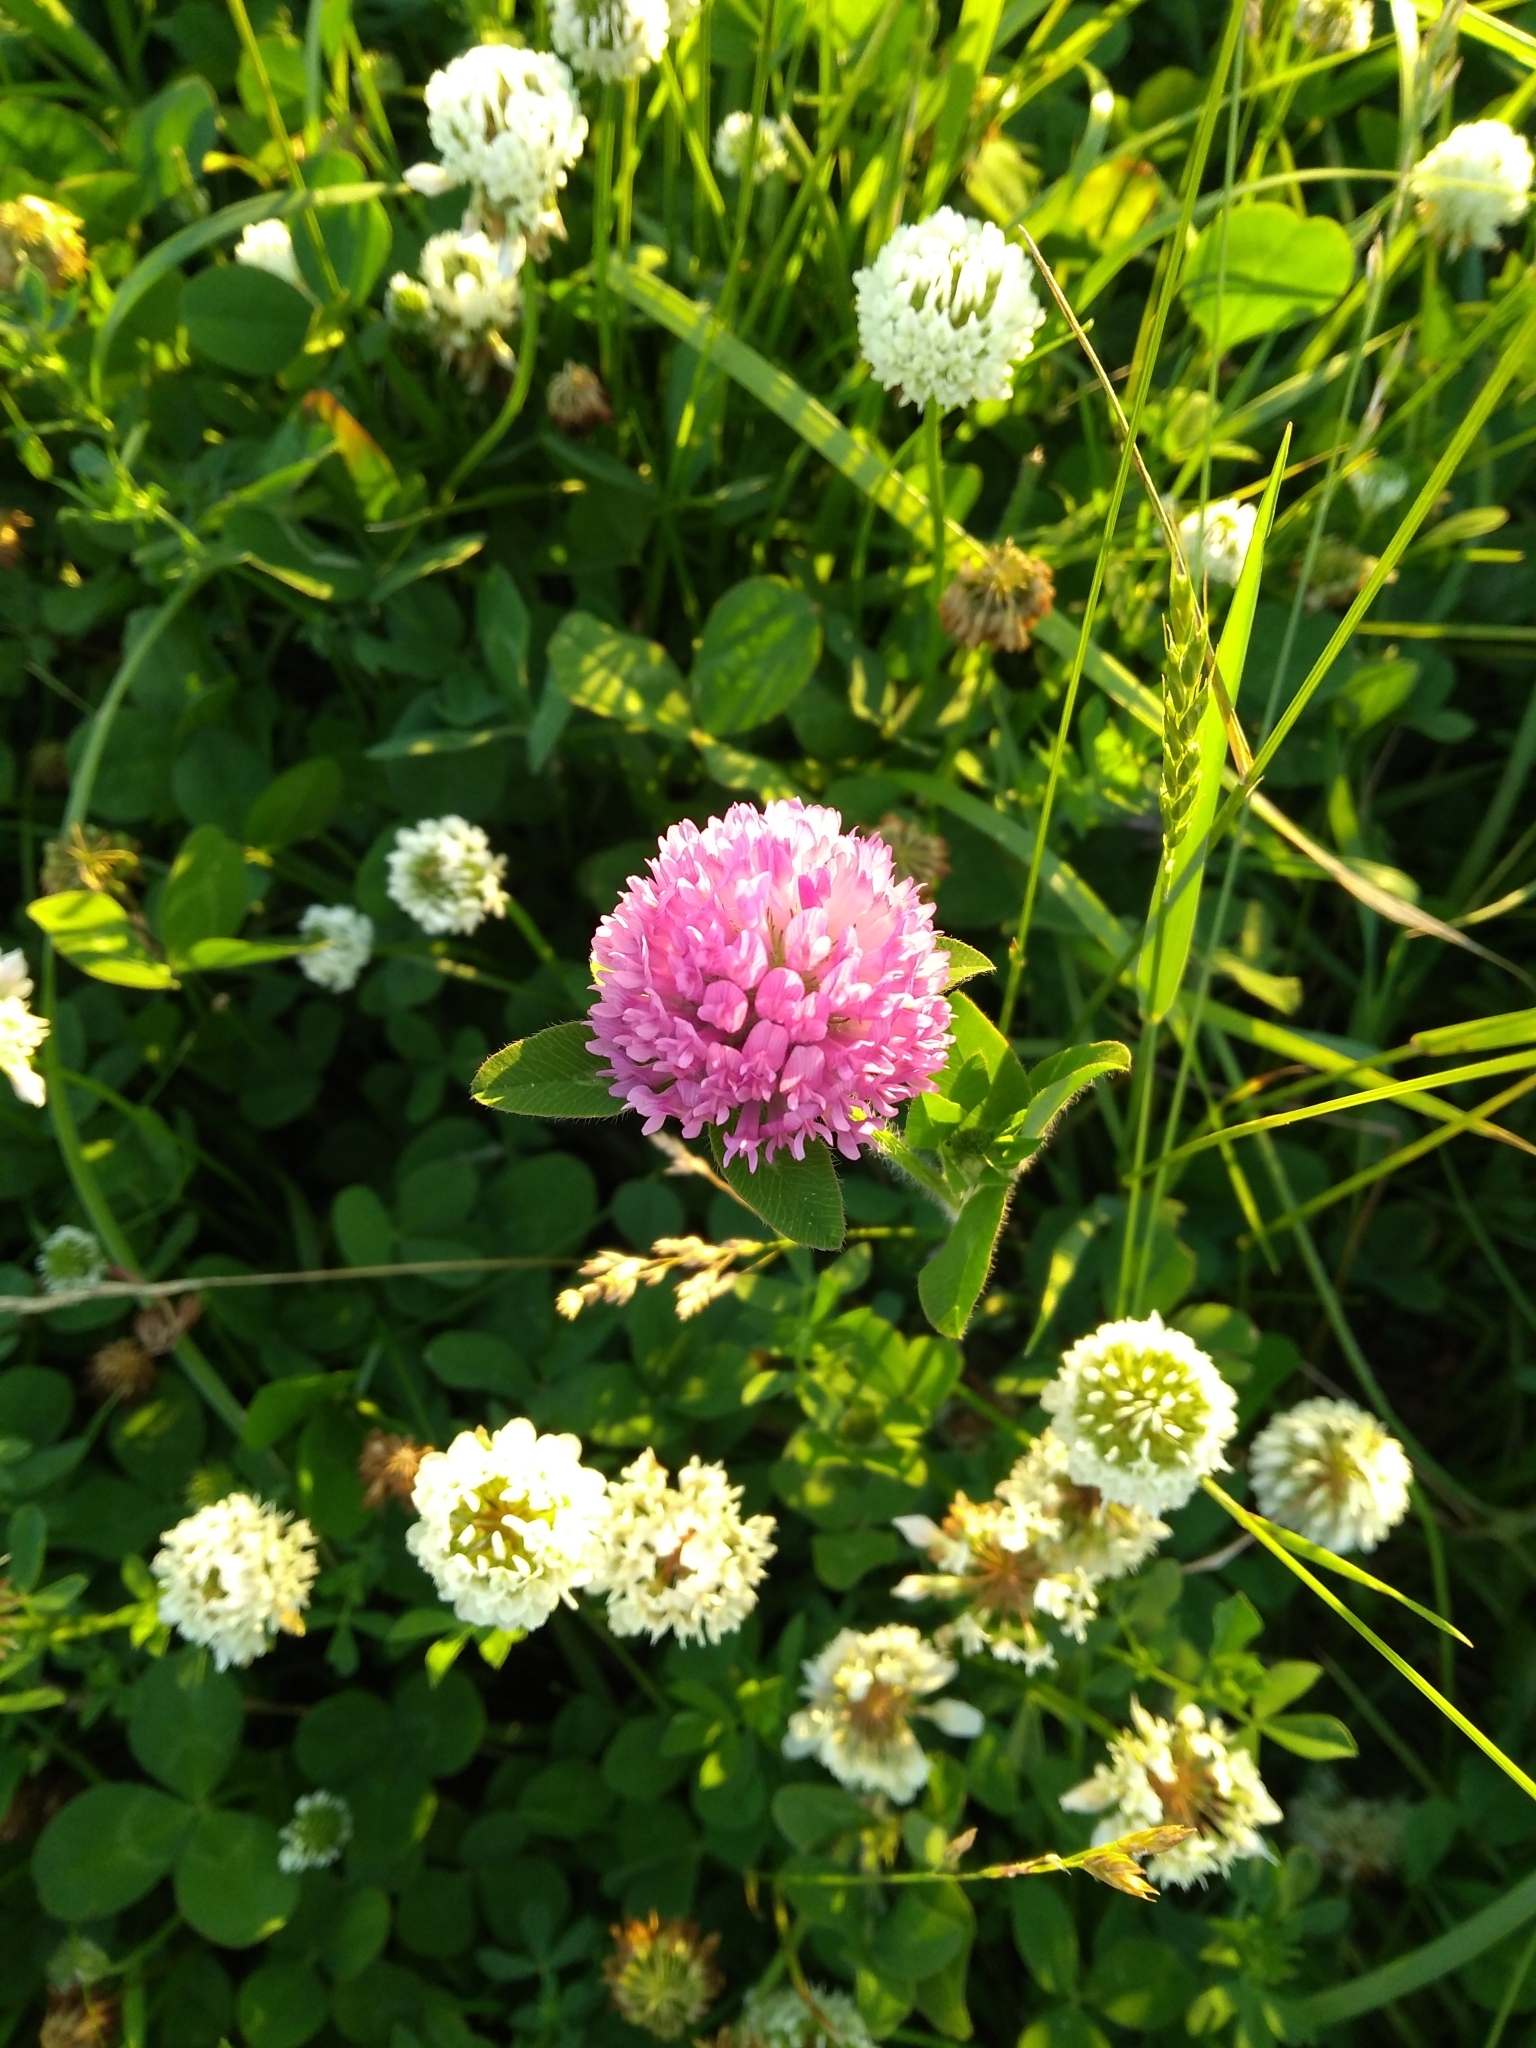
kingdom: Plantae
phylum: Tracheophyta
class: Magnoliopsida
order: Fabales
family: Fabaceae
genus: Trifolium
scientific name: Trifolium pratense
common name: Red clover
